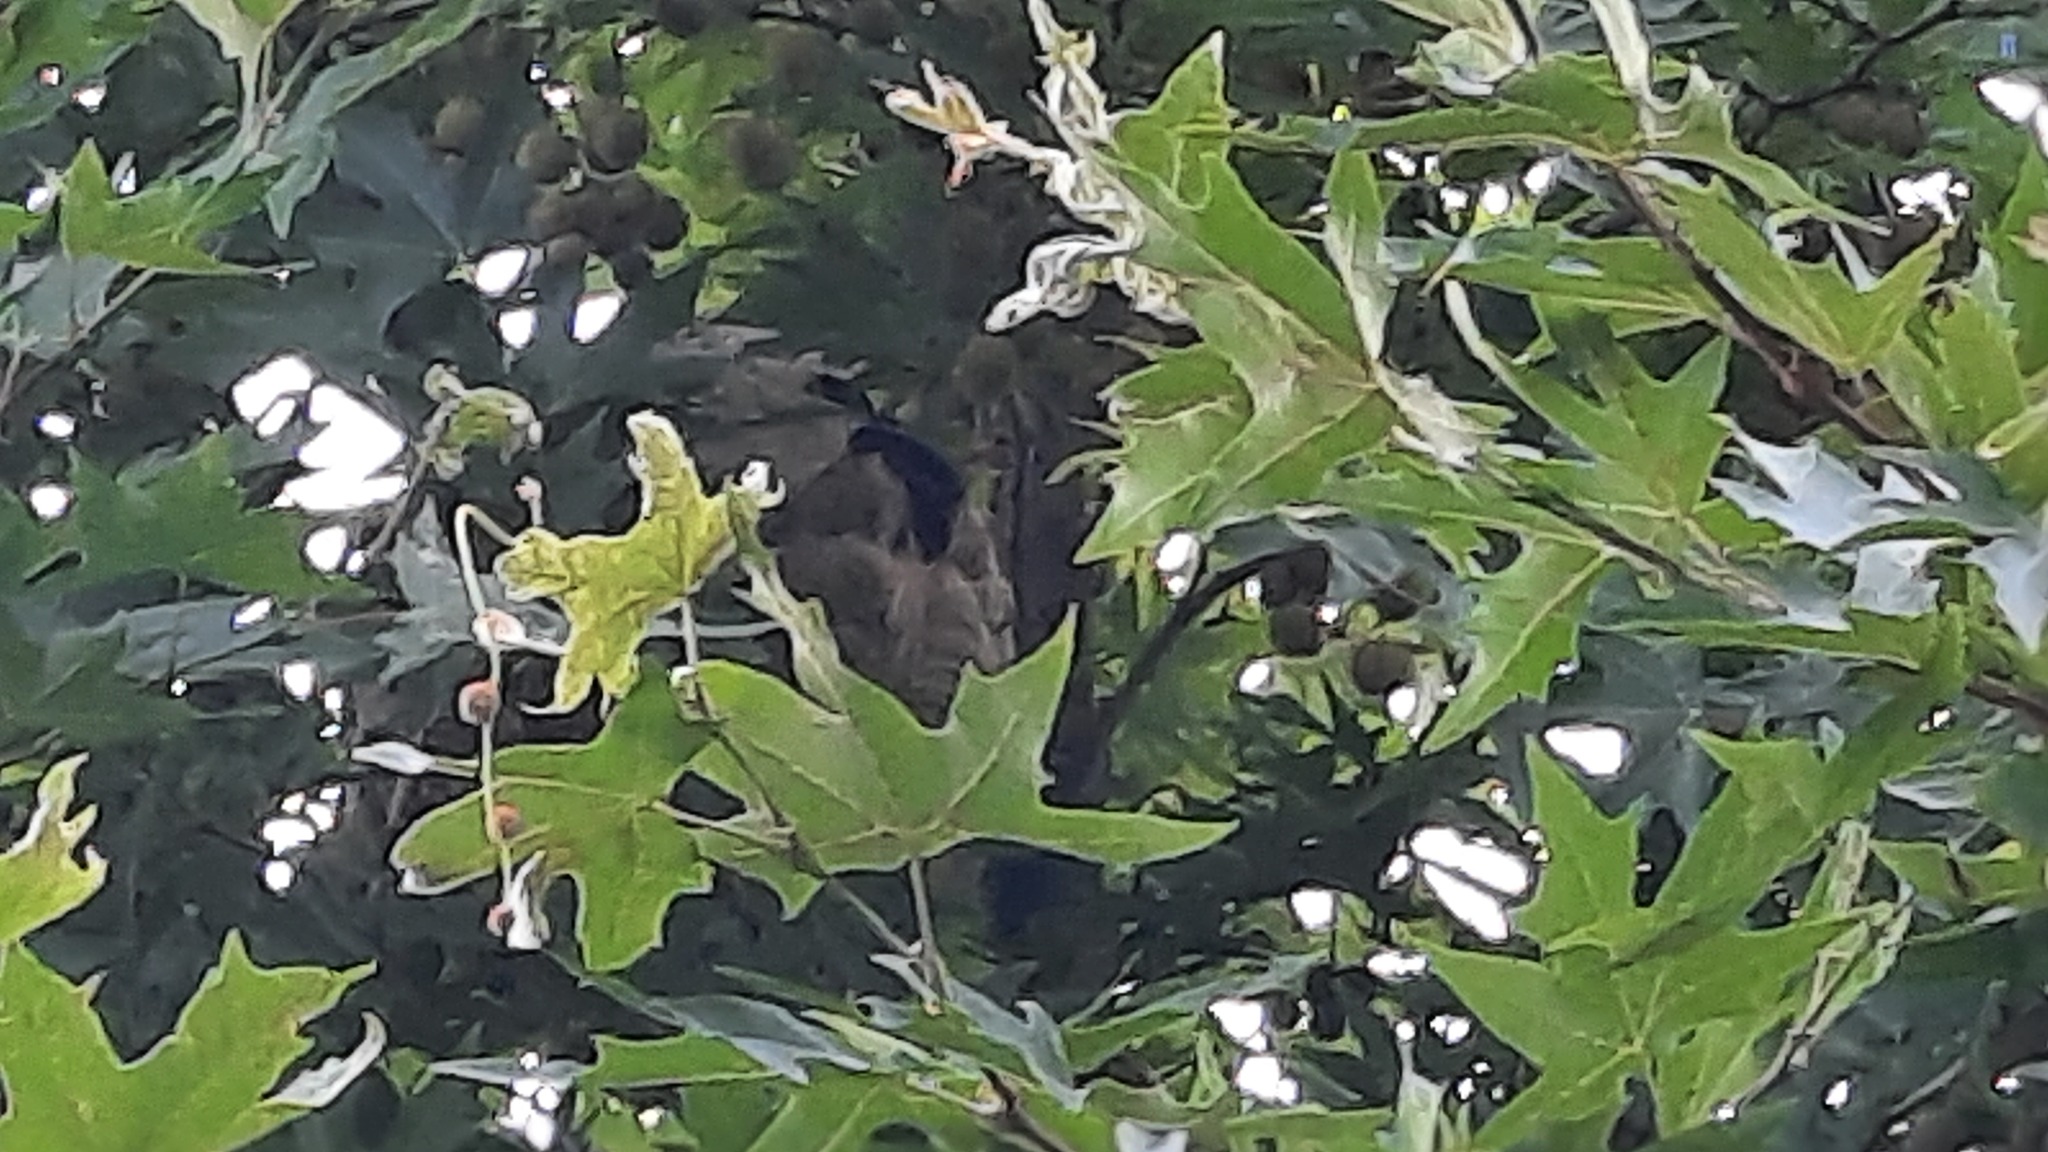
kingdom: Animalia
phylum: Arthropoda
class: Insecta
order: Hymenoptera
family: Vespidae
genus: Vespa
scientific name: Vespa velutina
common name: Asian hornet
